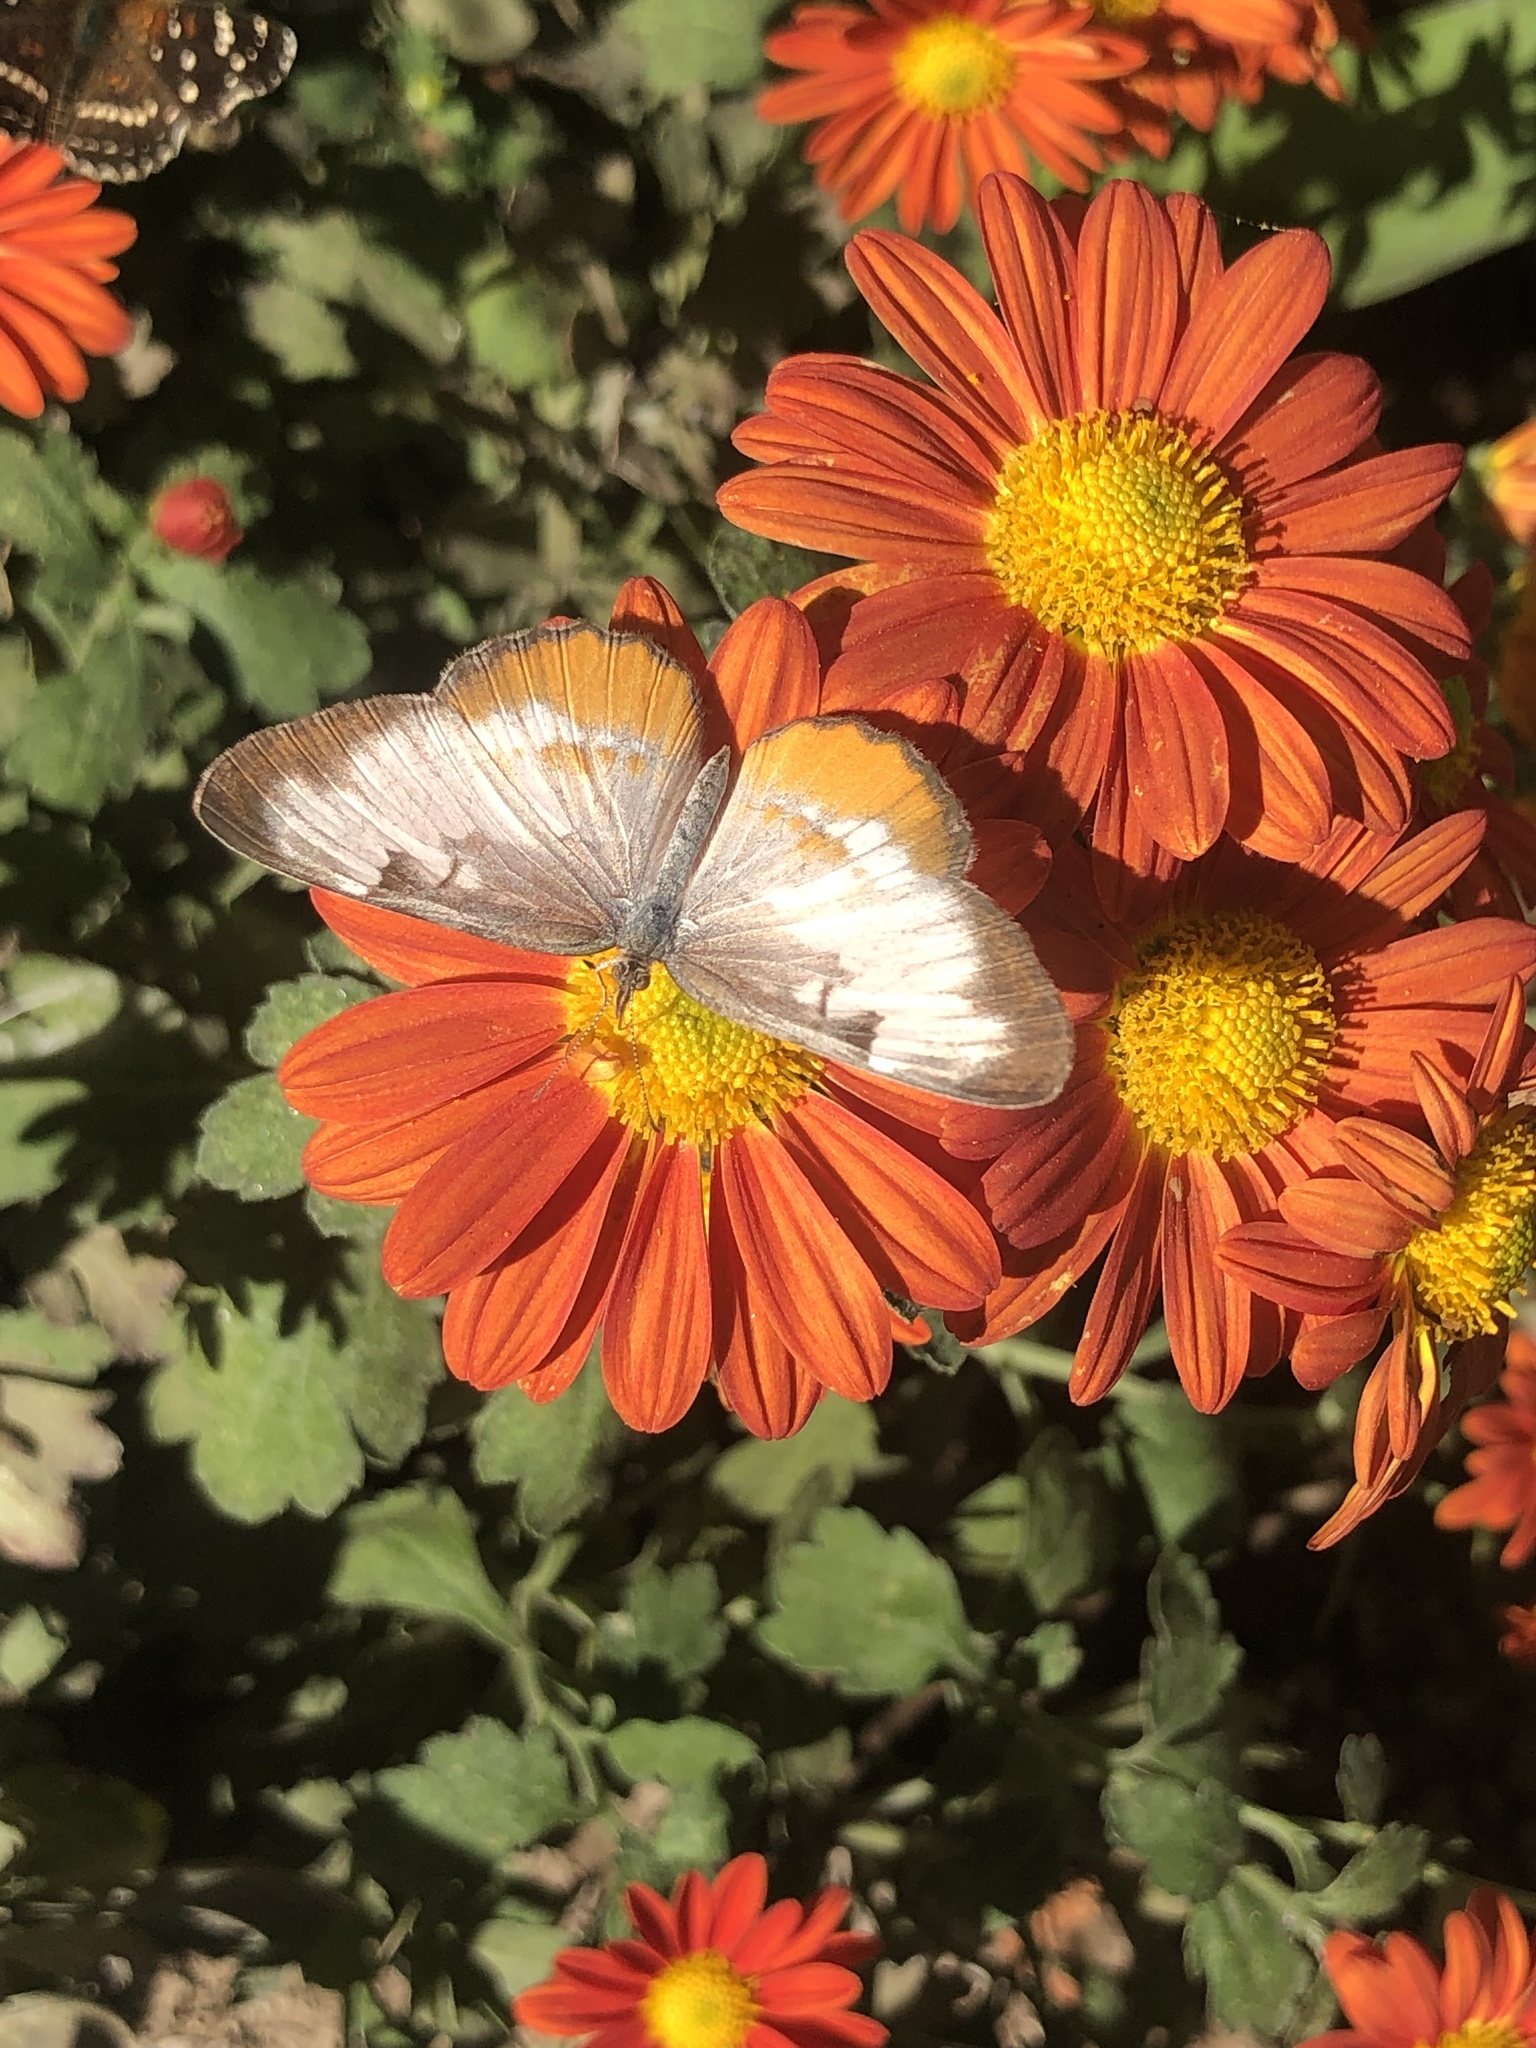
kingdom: Animalia
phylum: Arthropoda
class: Insecta
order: Lepidoptera
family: Nymphalidae
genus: Mestra
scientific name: Mestra amymone
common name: Common mestra
